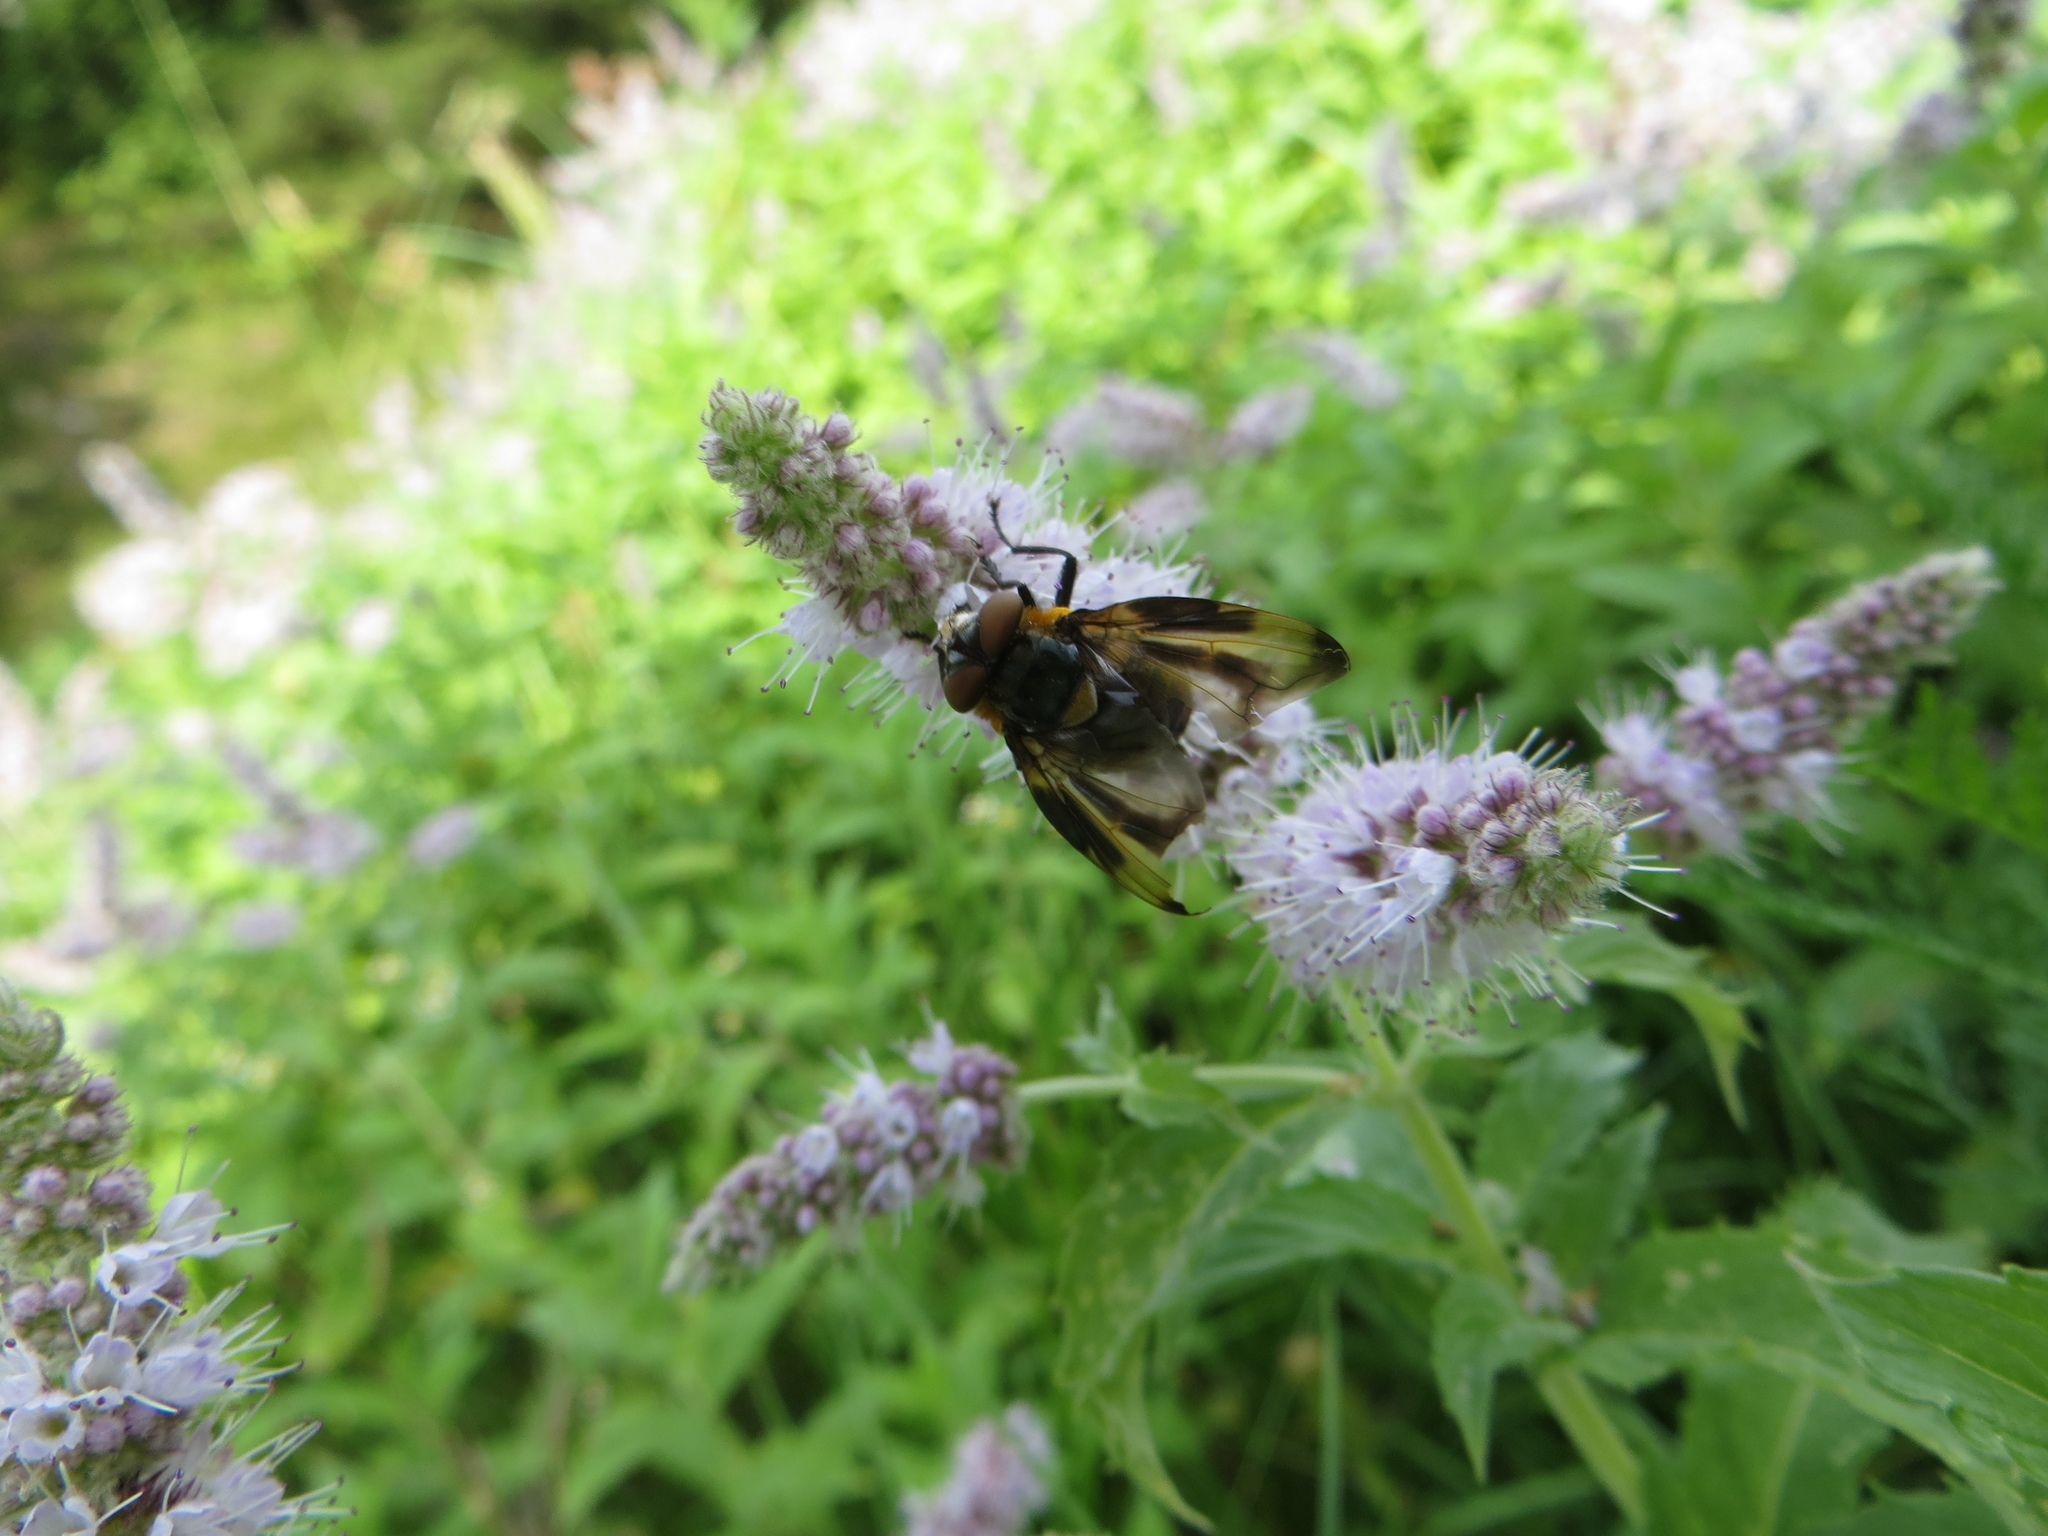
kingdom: Animalia
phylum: Arthropoda
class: Insecta
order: Diptera
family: Tachinidae
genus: Phasia
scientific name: Phasia hemiptera
